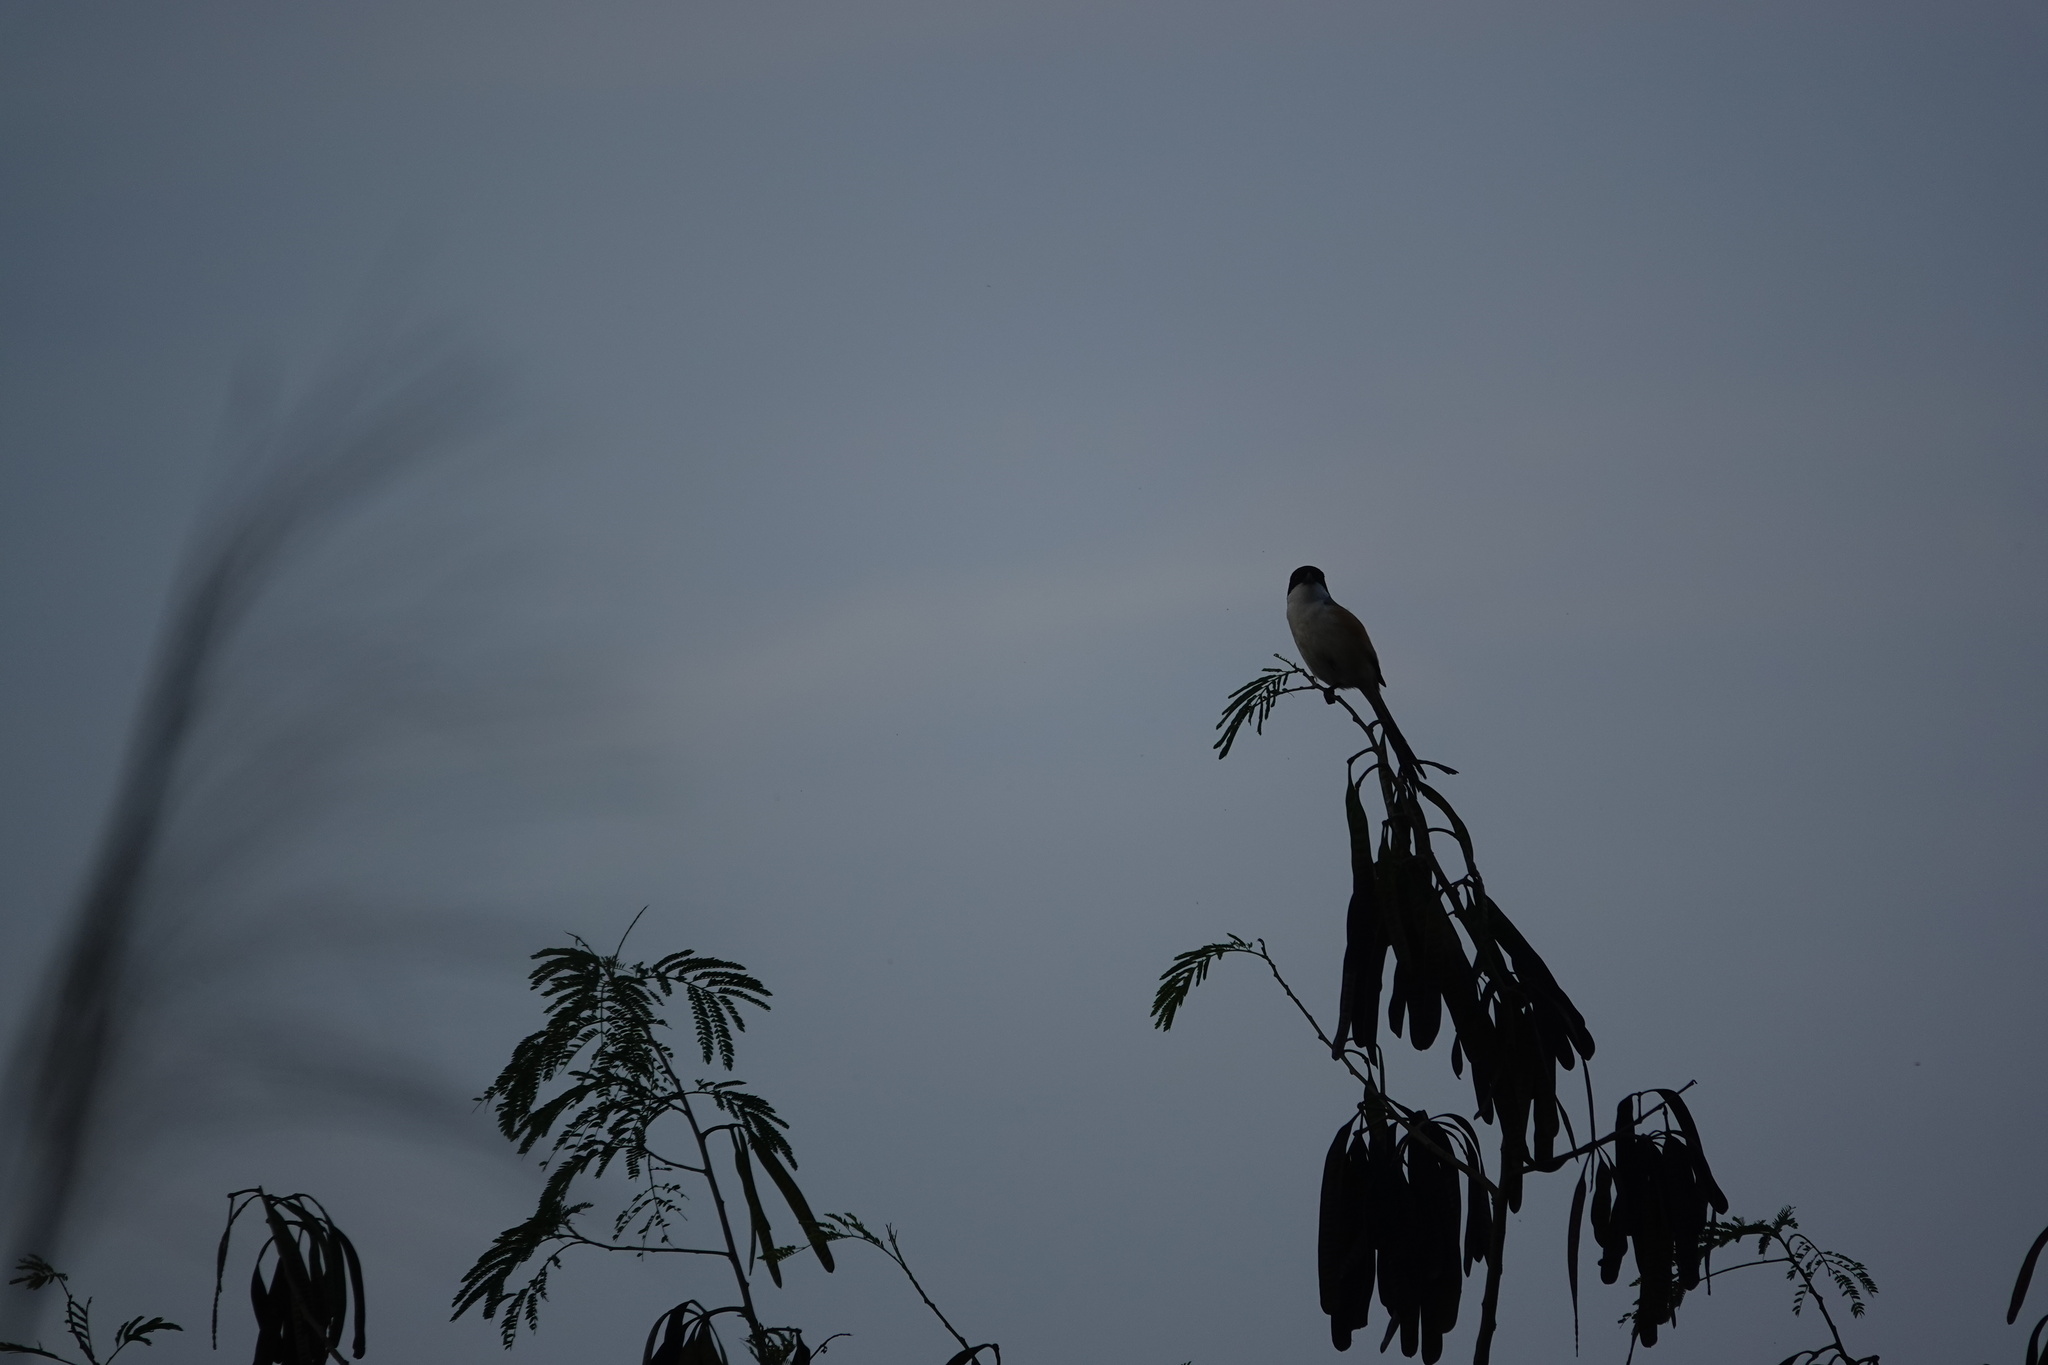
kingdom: Animalia
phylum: Chordata
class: Aves
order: Passeriformes
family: Laniidae
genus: Lanius
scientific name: Lanius schach
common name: Long-tailed shrike
